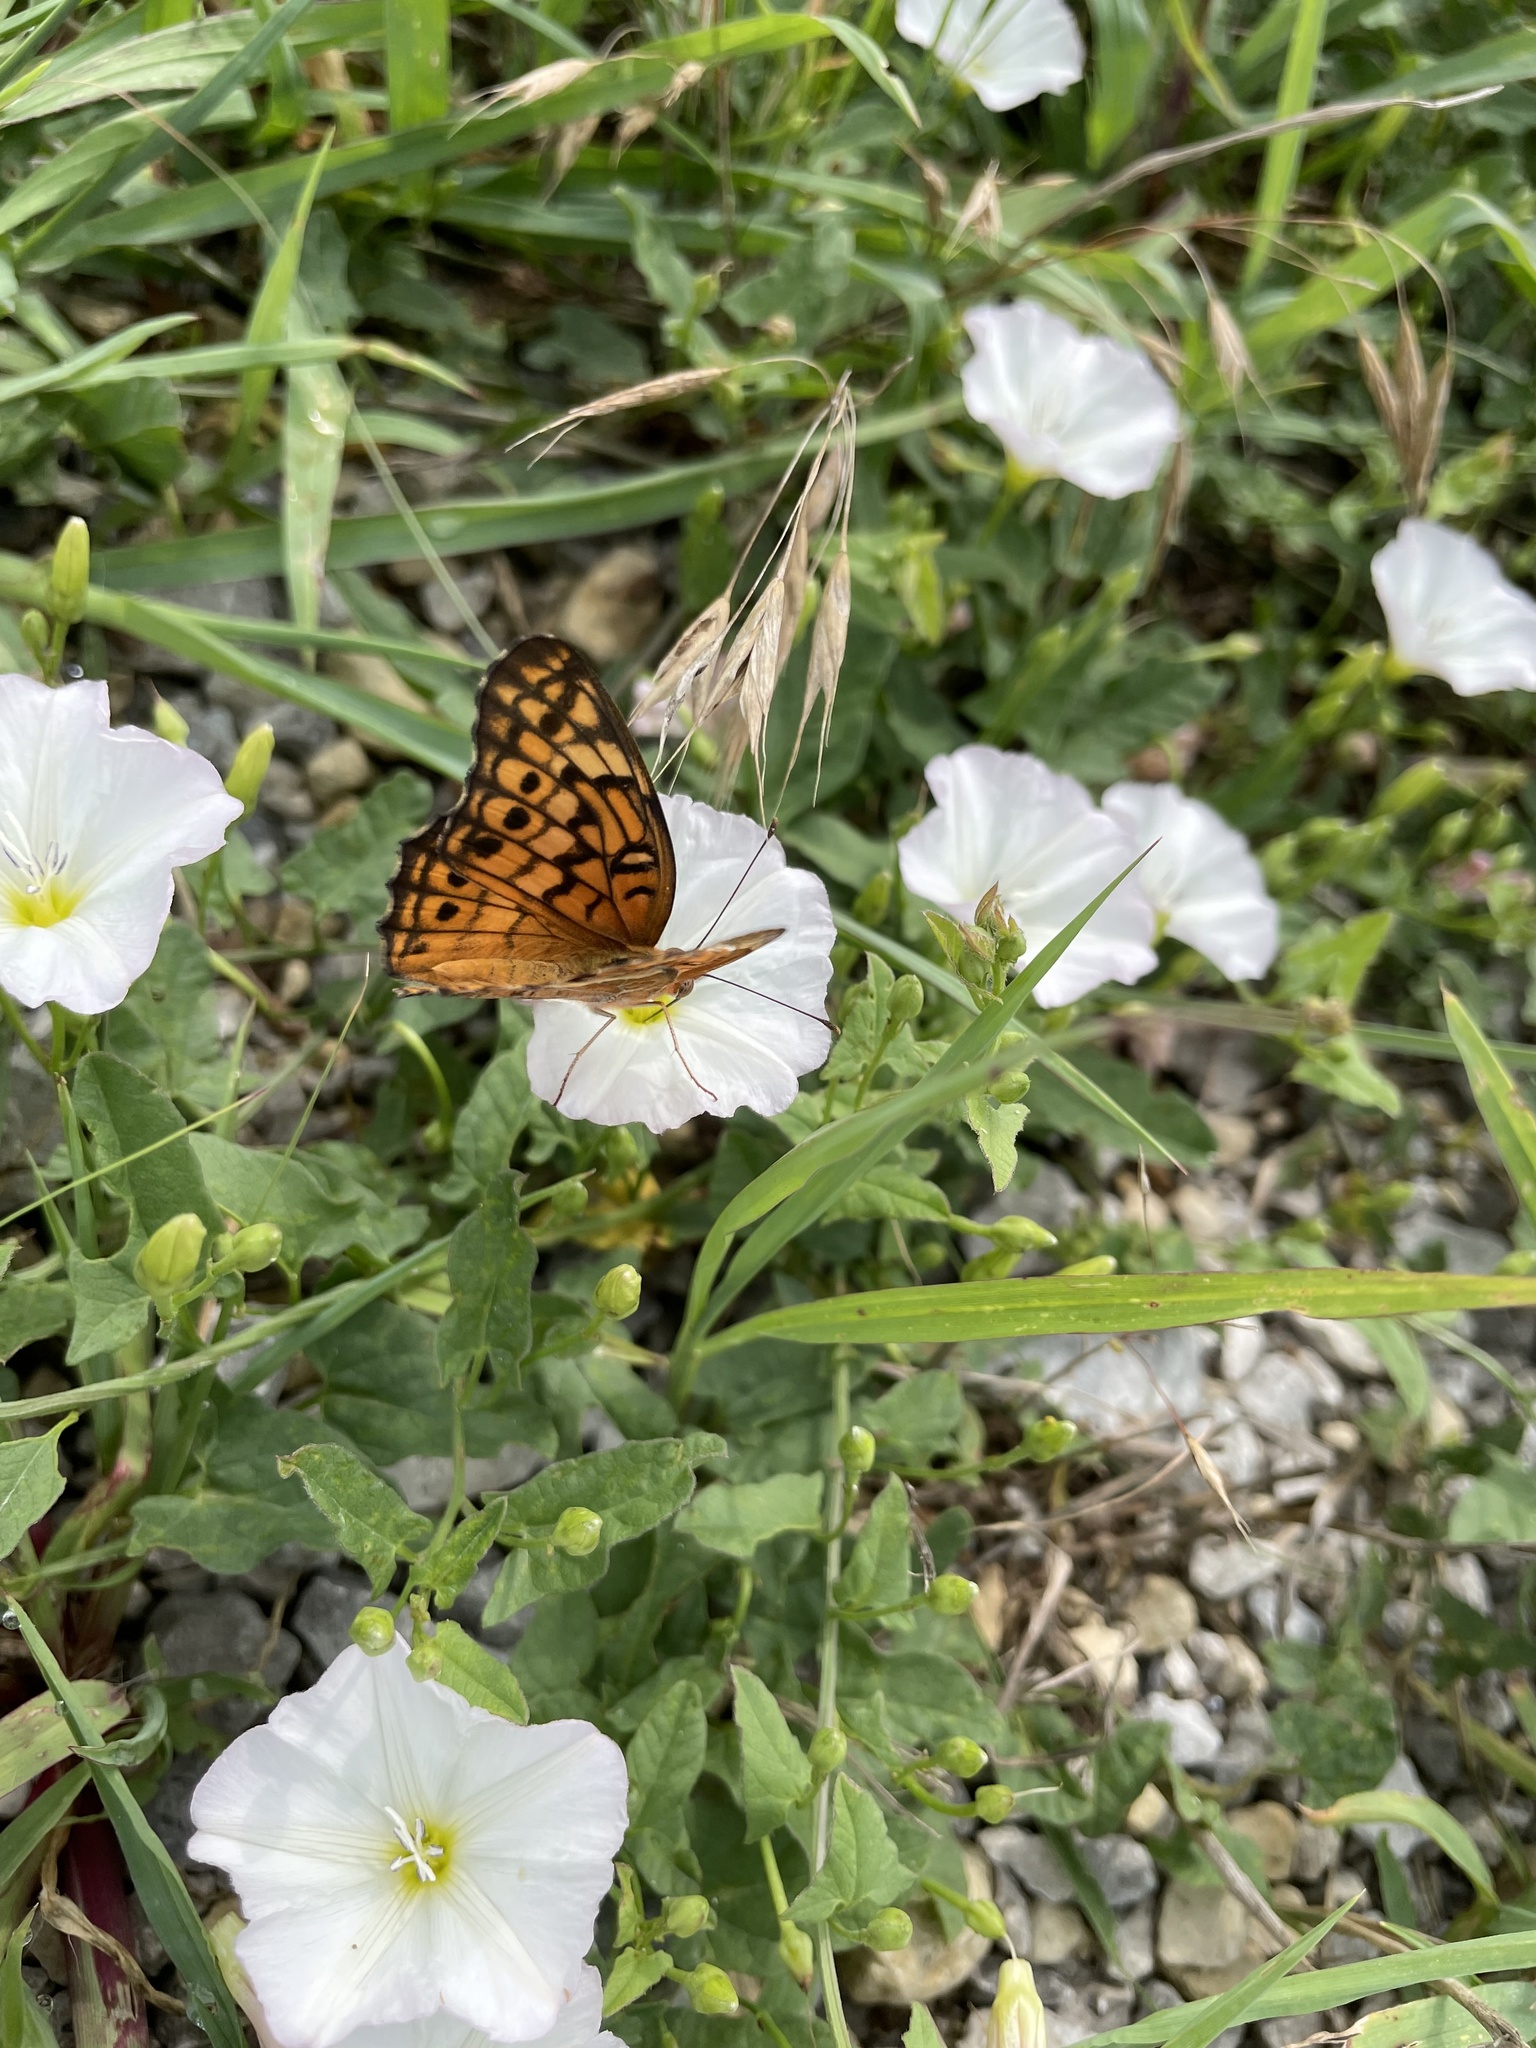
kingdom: Animalia
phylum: Arthropoda
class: Insecta
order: Lepidoptera
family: Nymphalidae
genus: Euptoieta
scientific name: Euptoieta claudia
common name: Variegated fritillary
